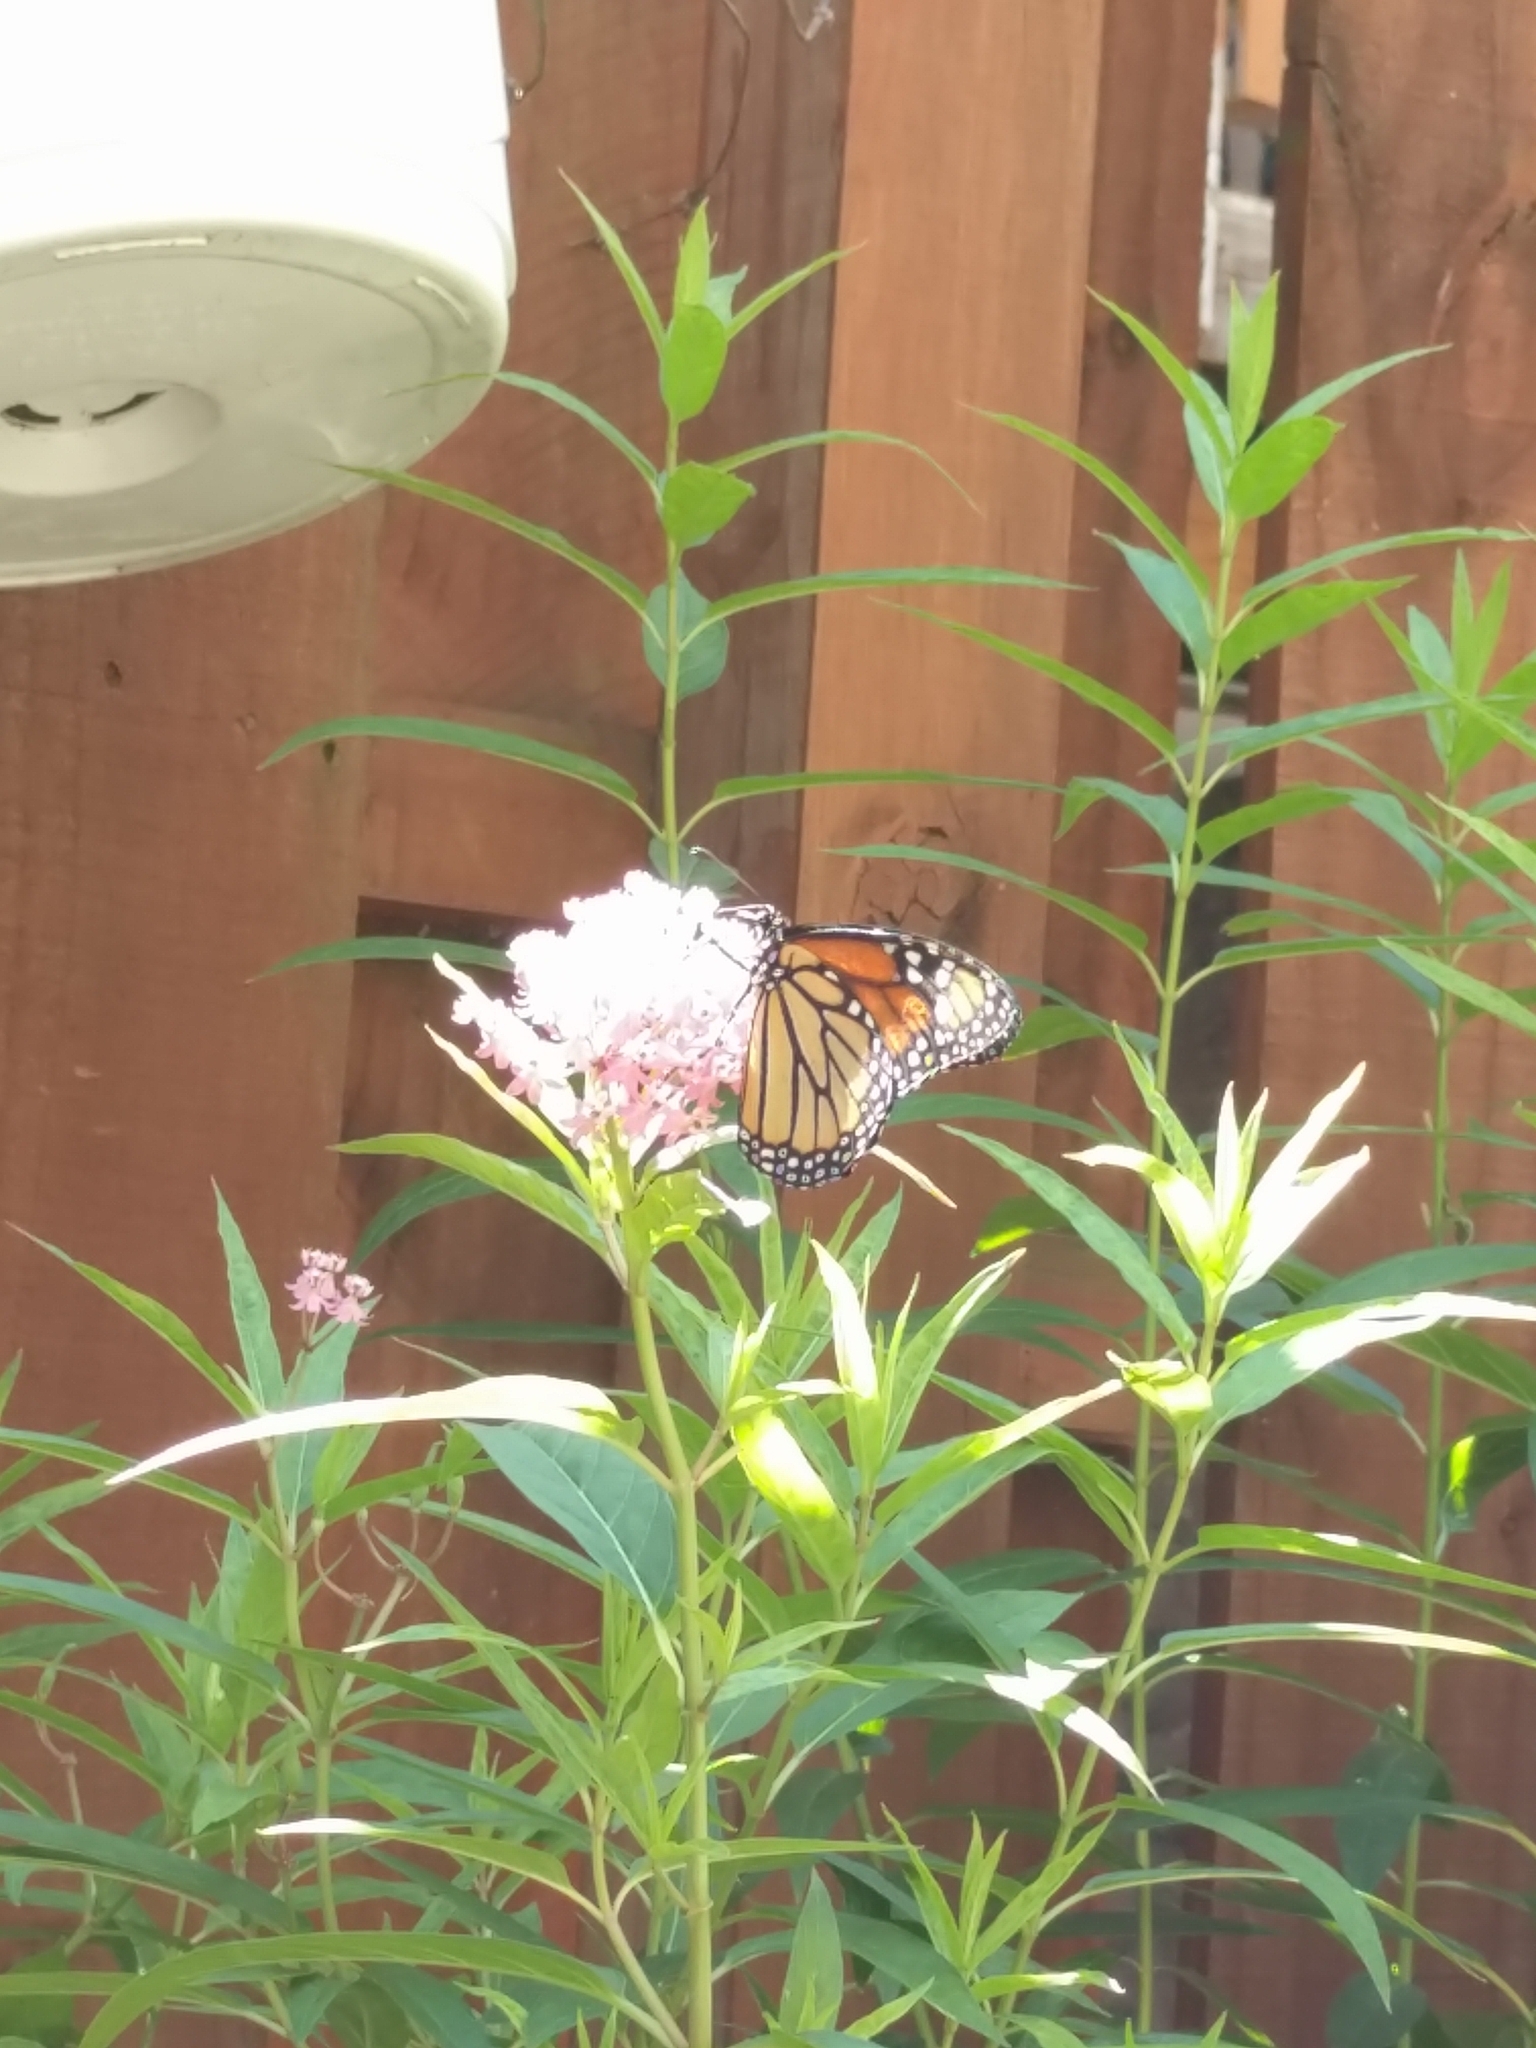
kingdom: Animalia
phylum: Arthropoda
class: Insecta
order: Lepidoptera
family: Nymphalidae
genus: Danaus
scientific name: Danaus plexippus
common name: Monarch
